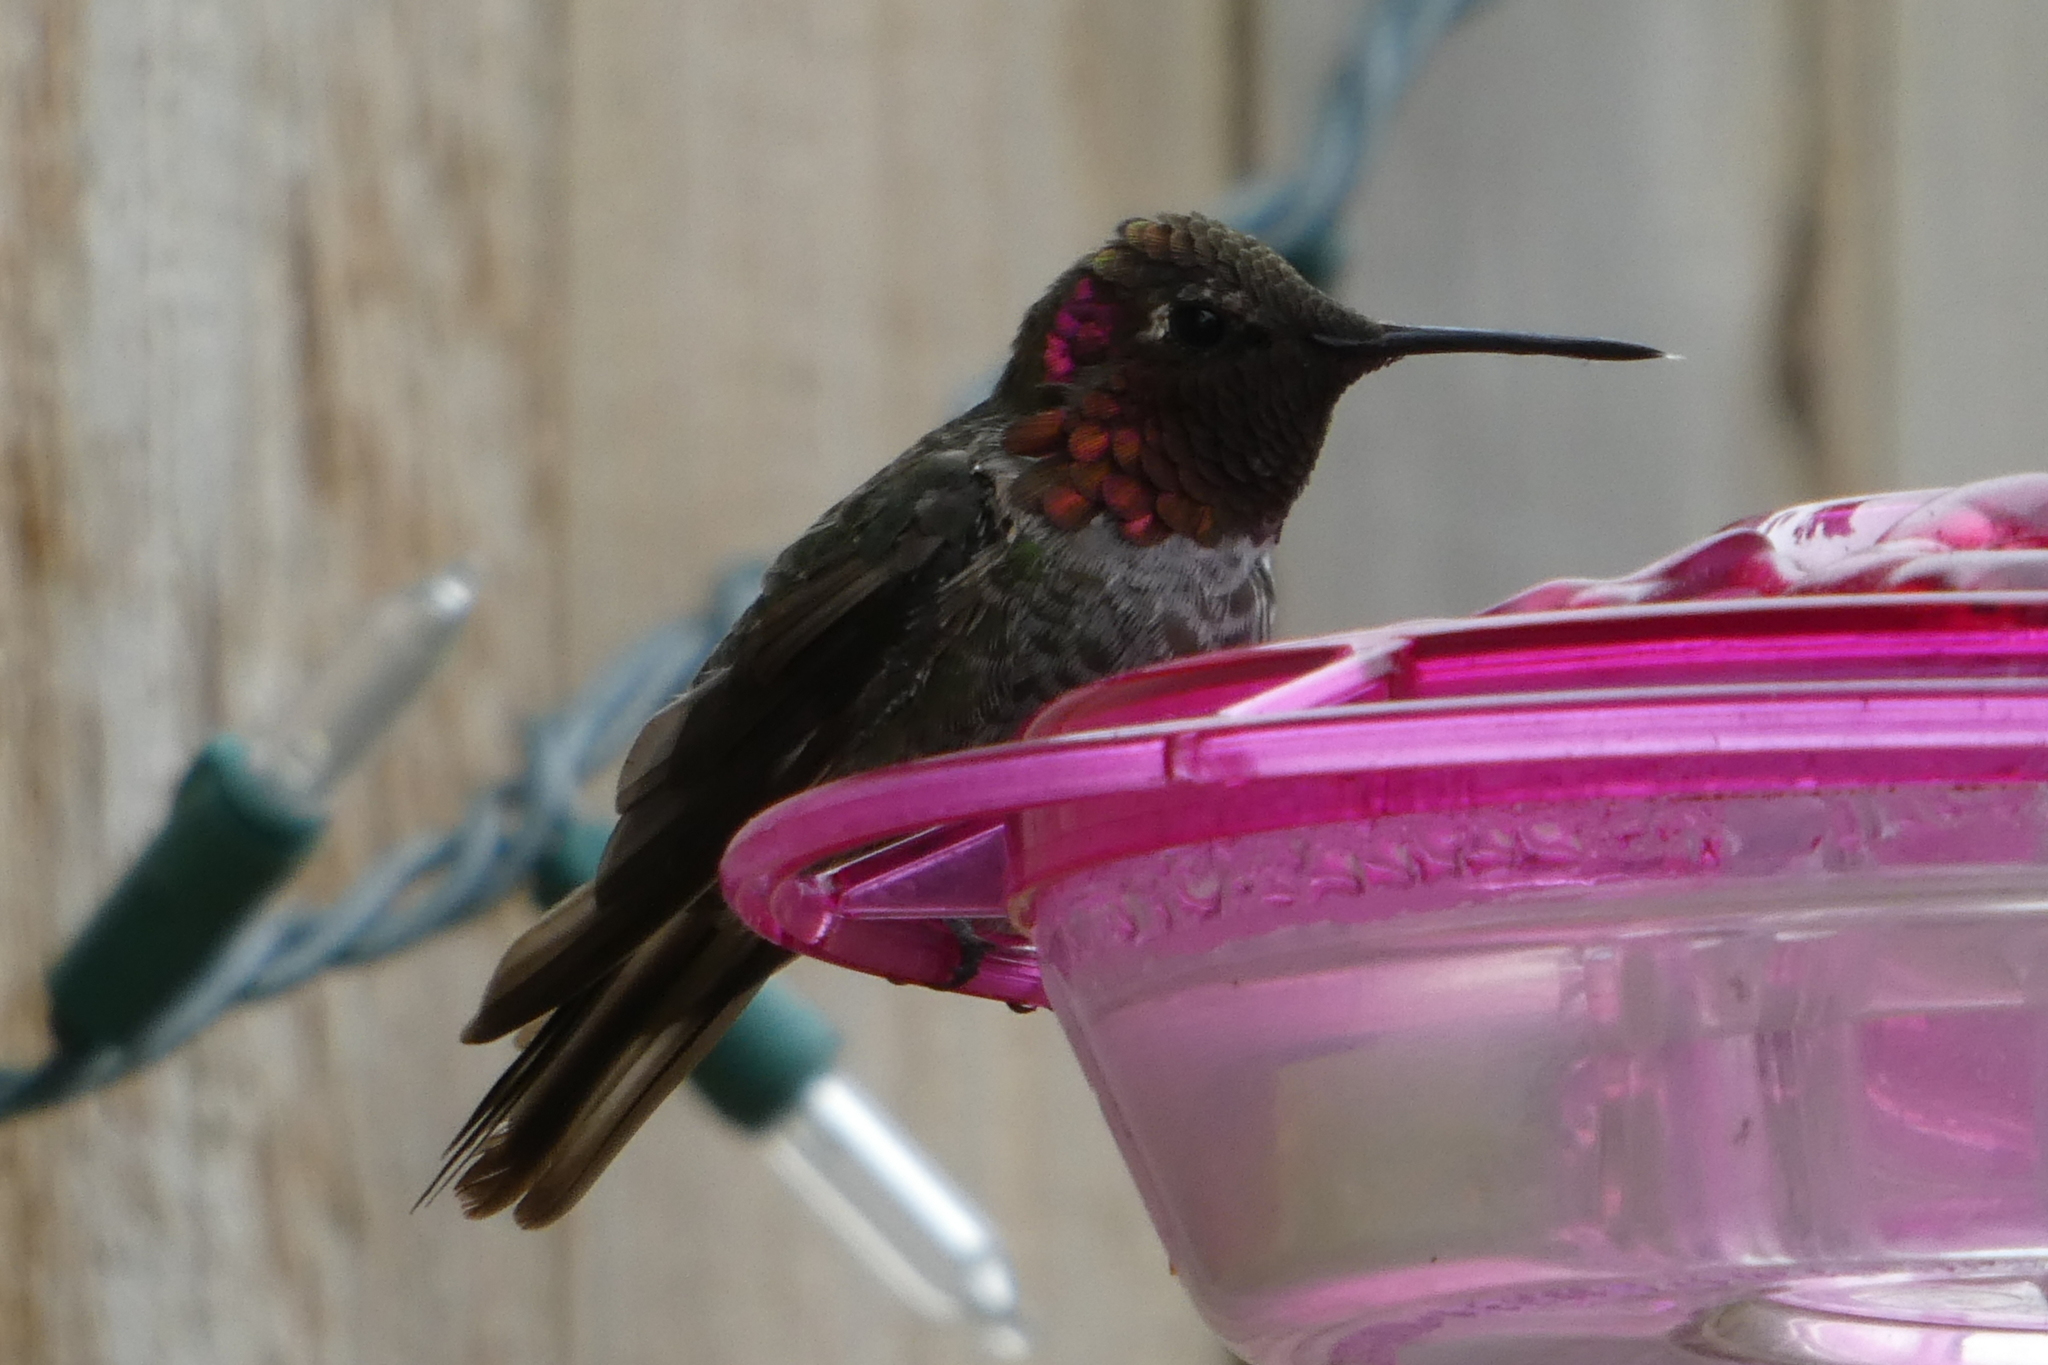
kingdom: Animalia
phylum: Chordata
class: Aves
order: Apodiformes
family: Trochilidae
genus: Calypte
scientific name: Calypte anna
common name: Anna's hummingbird
